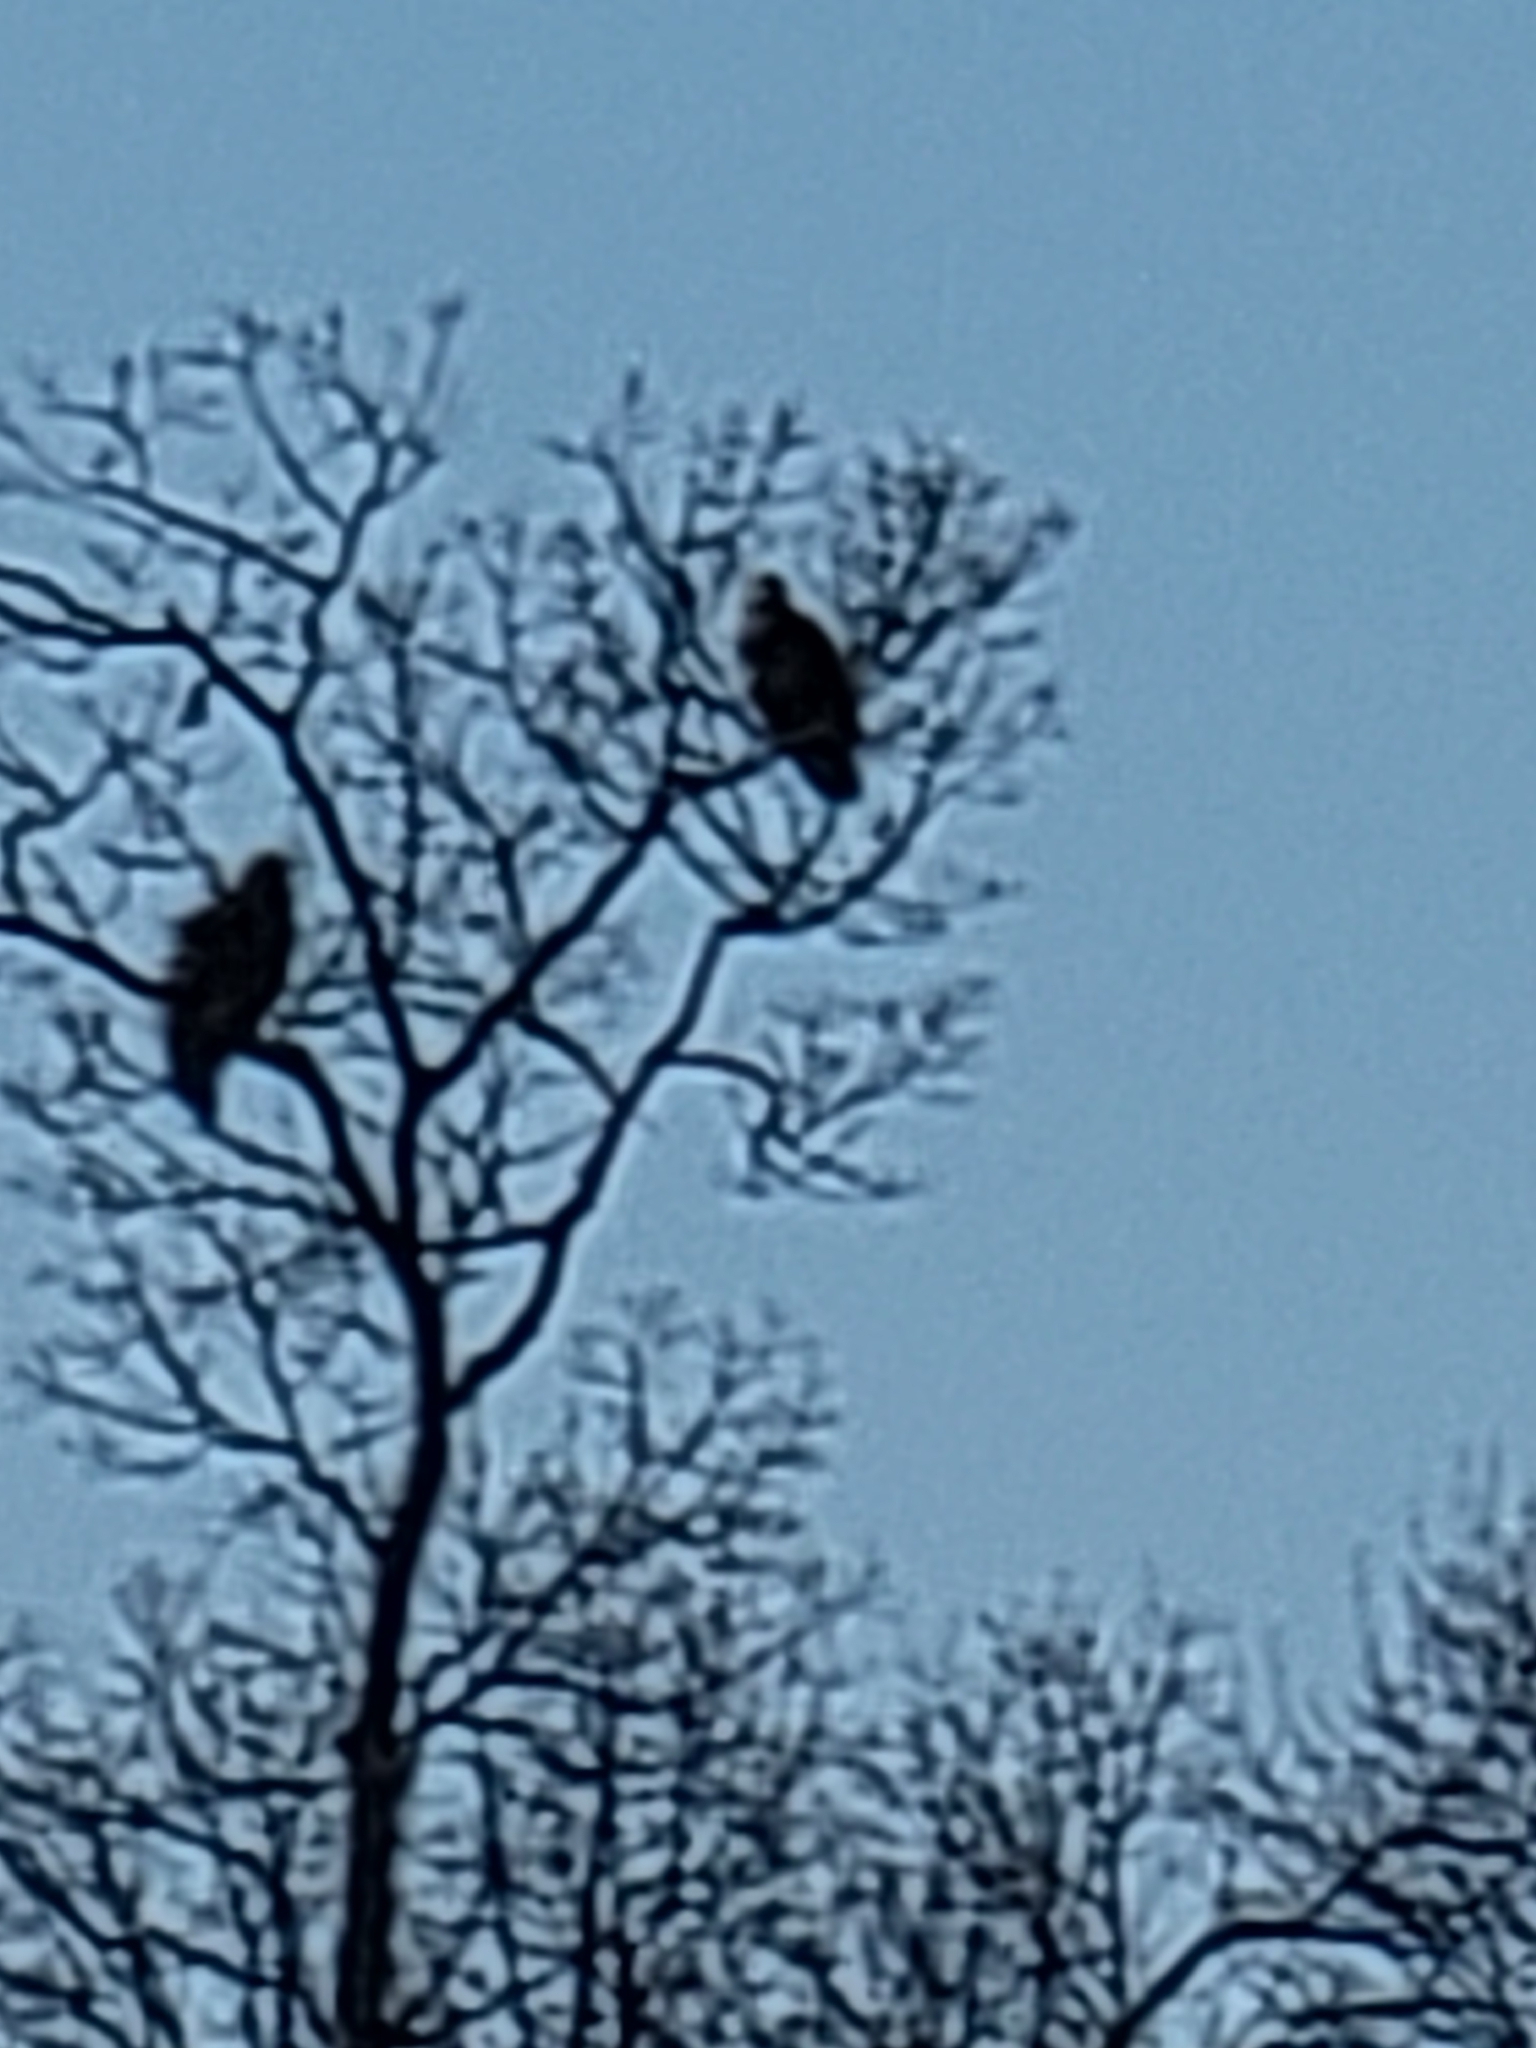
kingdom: Animalia
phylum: Chordata
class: Aves
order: Accipitriformes
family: Accipitridae
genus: Haliaeetus
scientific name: Haliaeetus leucocephalus
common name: Bald eagle
